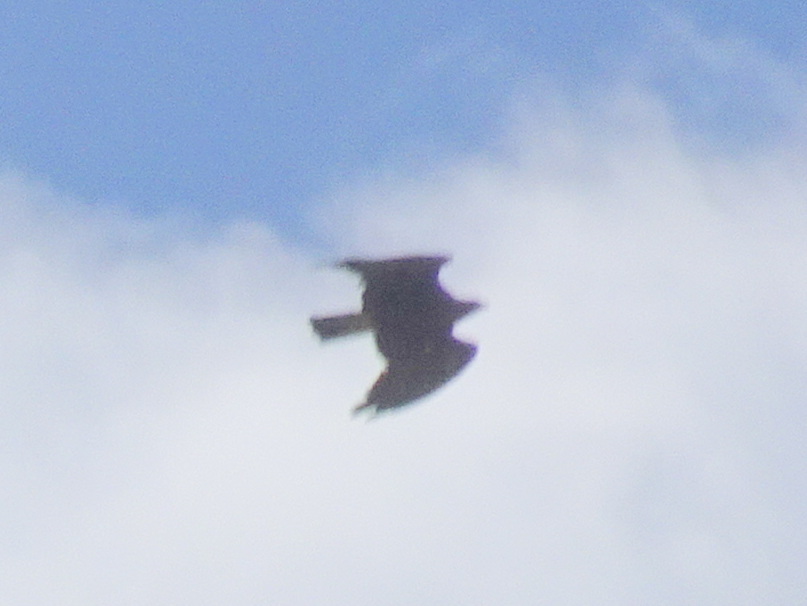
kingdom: Animalia
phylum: Chordata
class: Aves
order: Accipitriformes
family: Accipitridae
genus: Aquila
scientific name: Aquila chrysaetos
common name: Golden eagle
